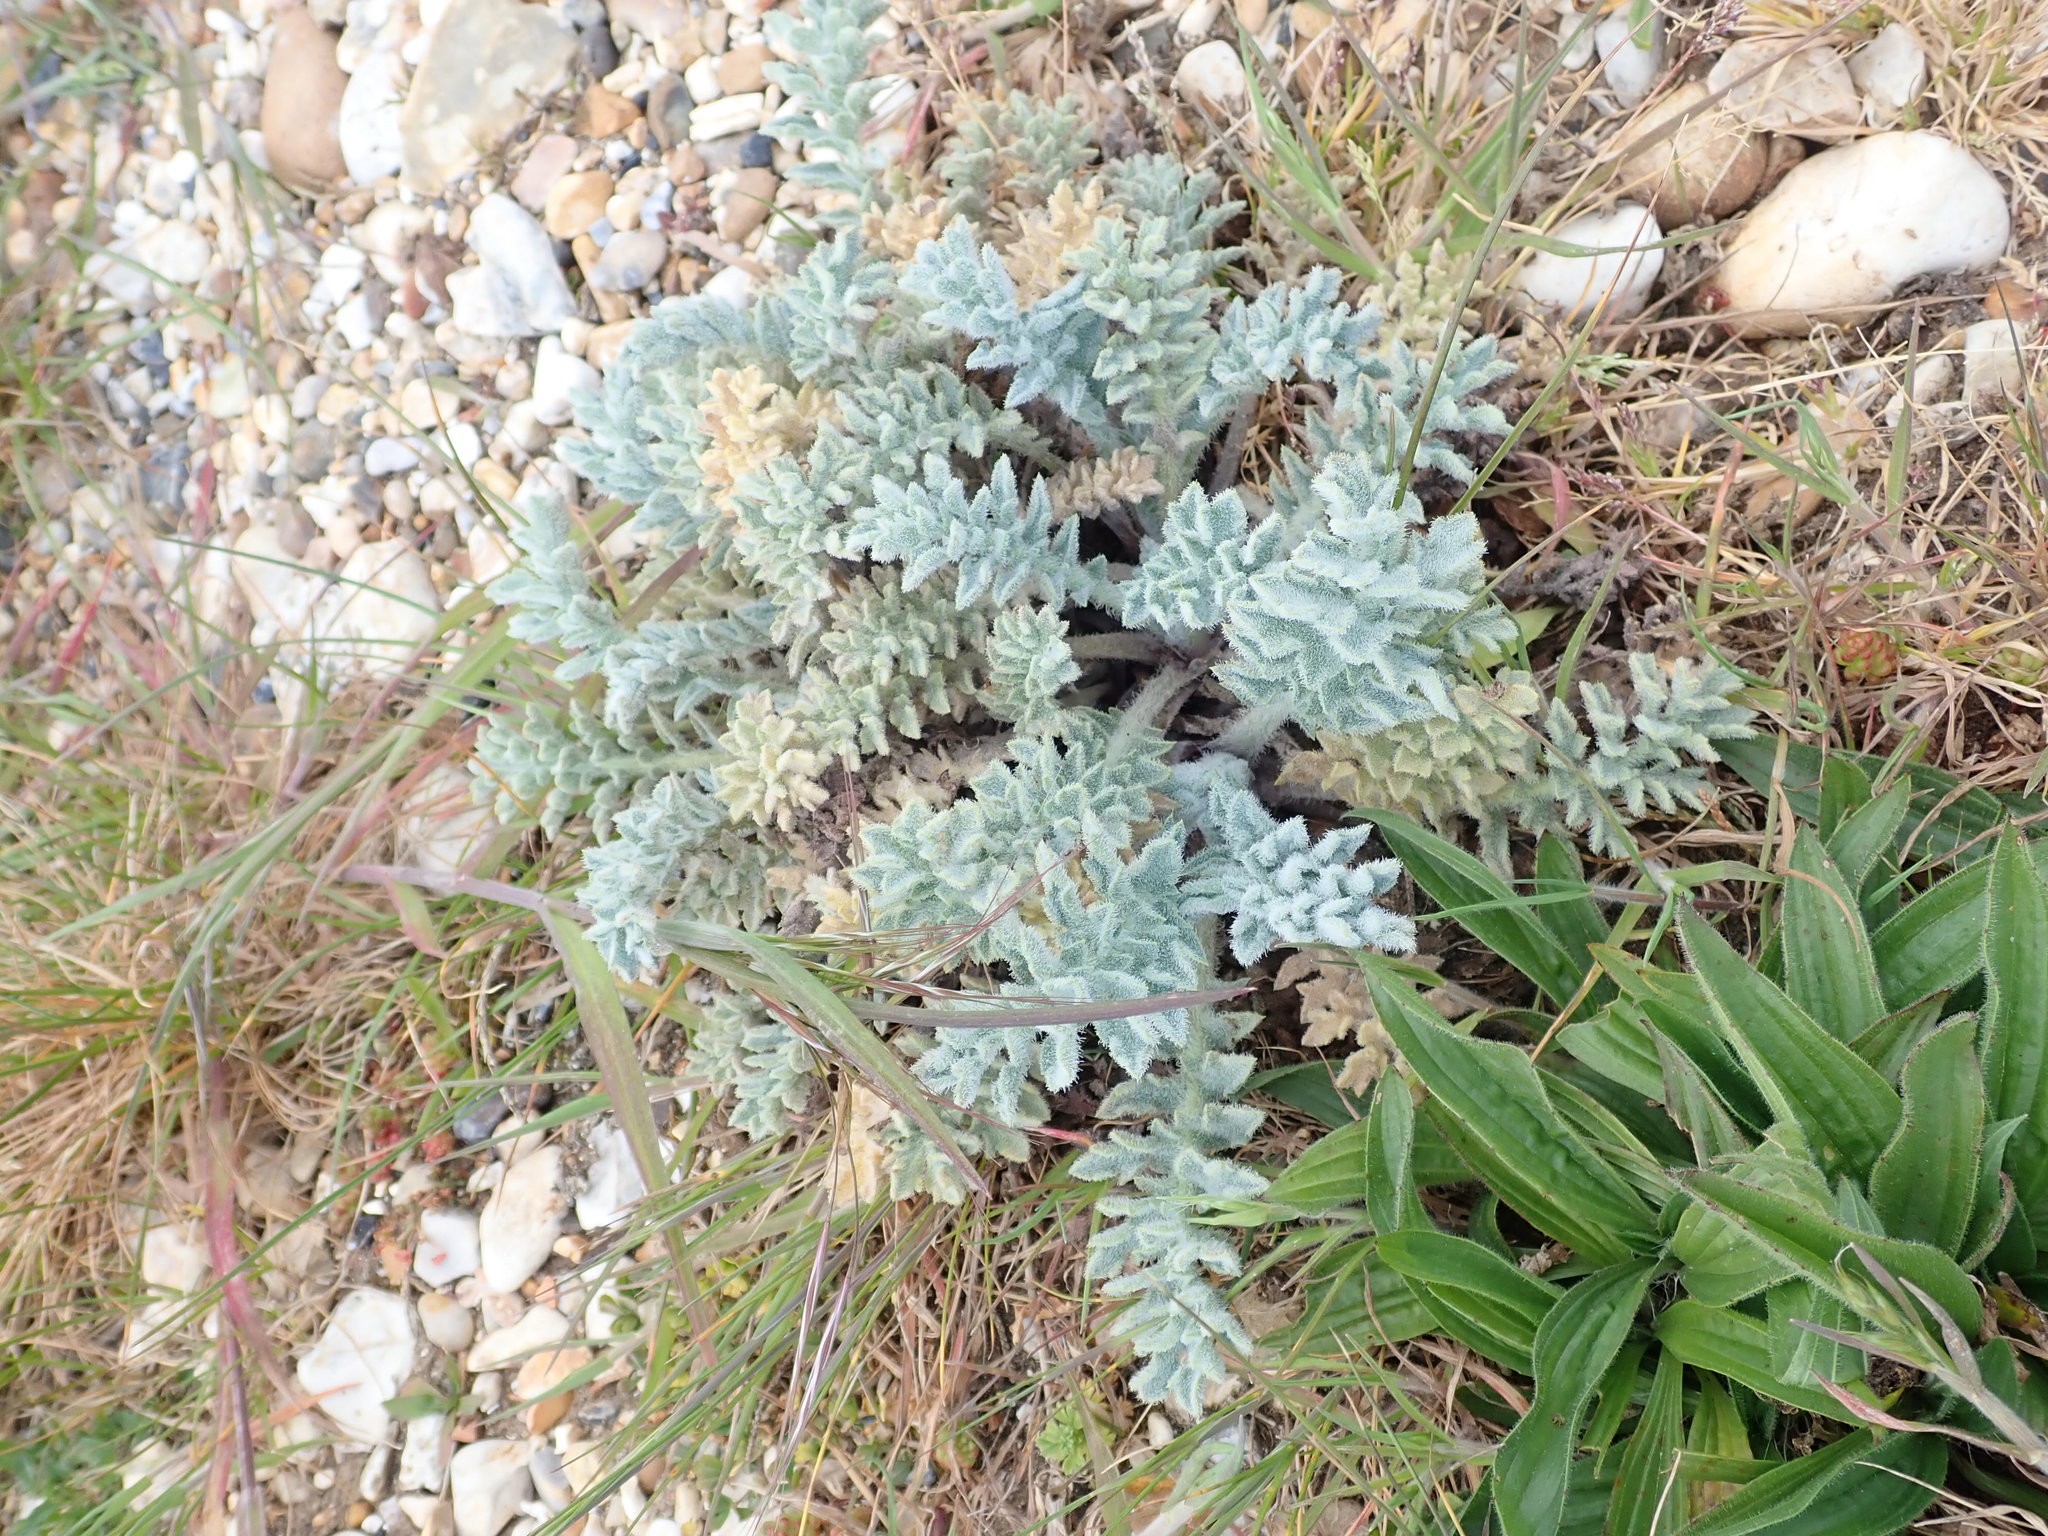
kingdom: Plantae
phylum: Tracheophyta
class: Magnoliopsida
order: Ranunculales
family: Papaveraceae
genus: Glaucium
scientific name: Glaucium flavum
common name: Yellow horned-poppy
